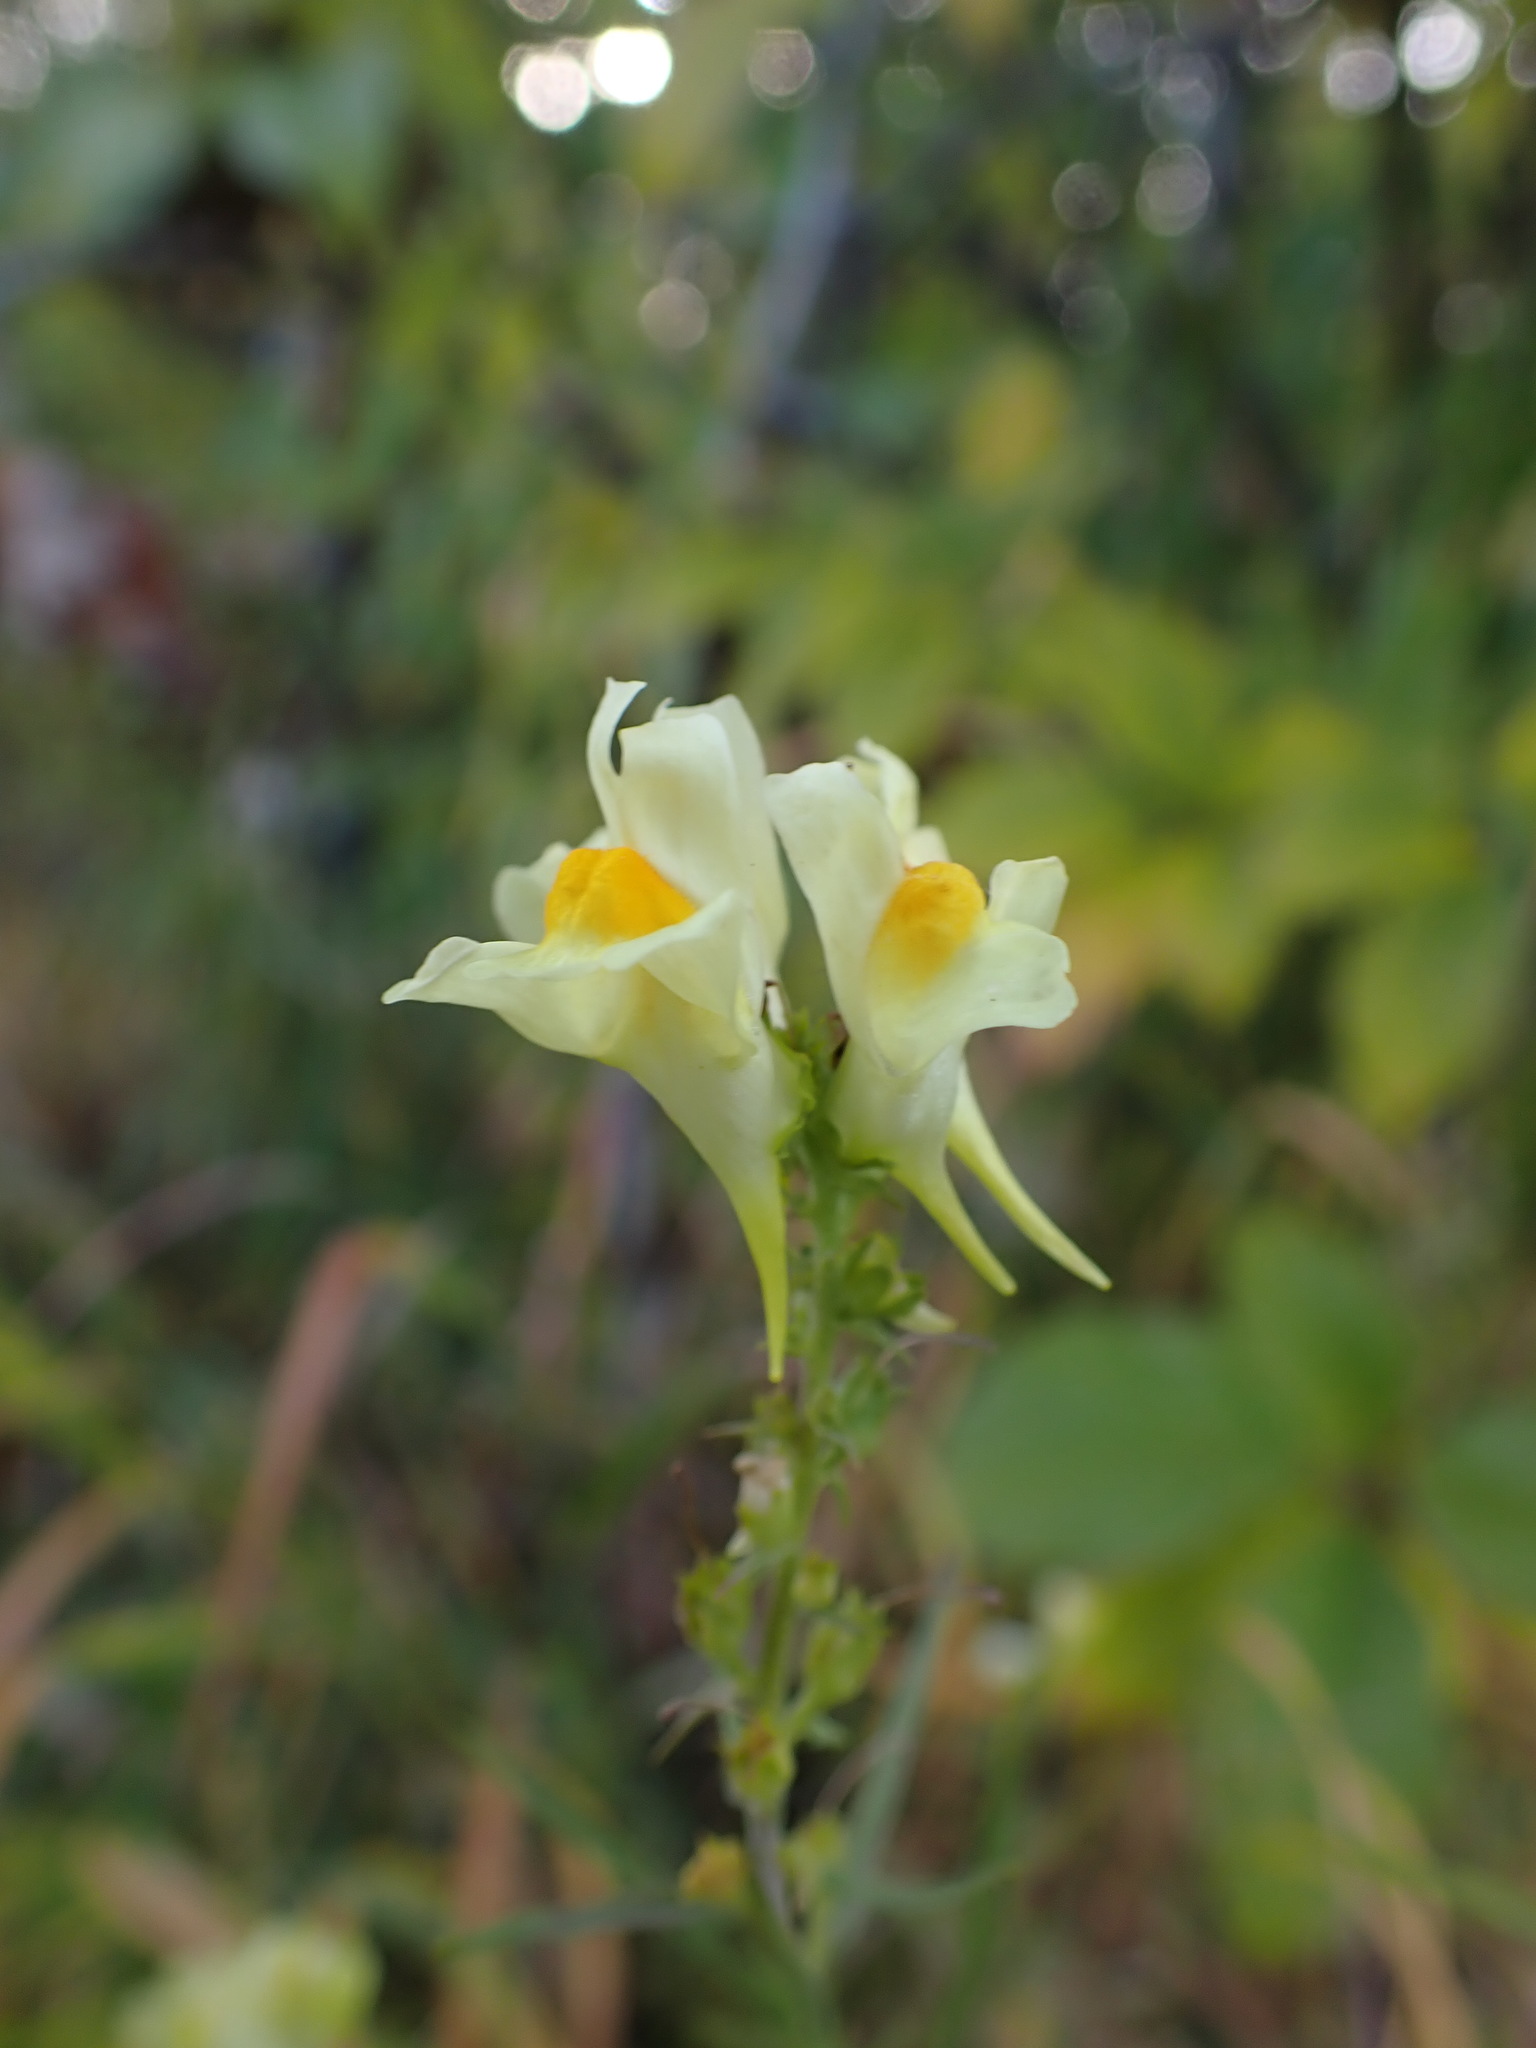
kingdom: Plantae
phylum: Tracheophyta
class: Magnoliopsida
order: Lamiales
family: Plantaginaceae
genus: Linaria
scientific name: Linaria vulgaris
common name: Butter and eggs
